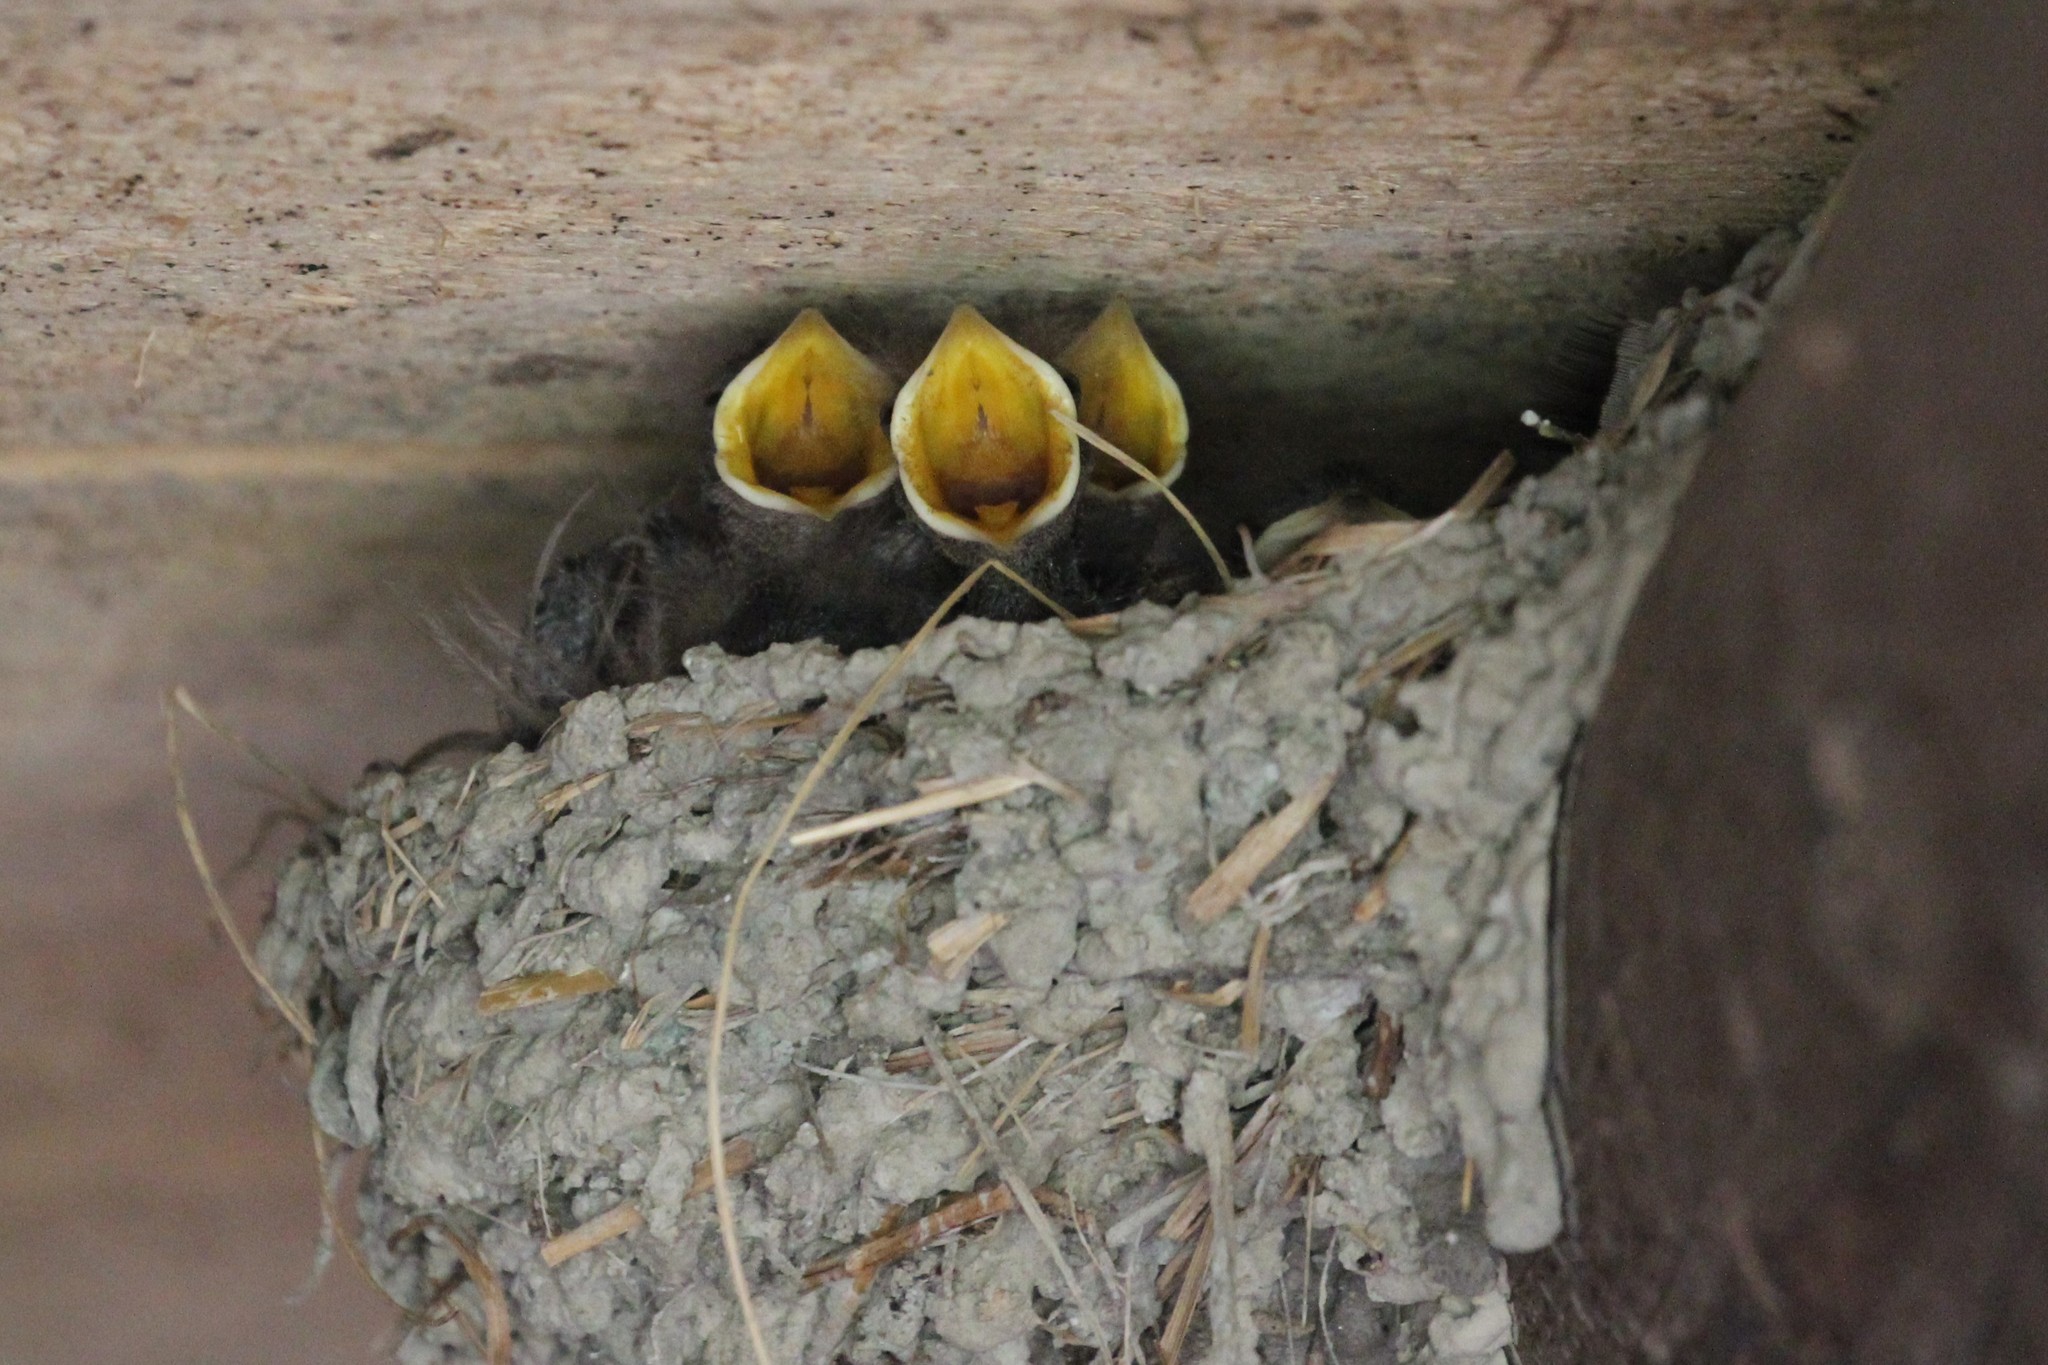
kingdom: Animalia
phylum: Chordata
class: Aves
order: Passeriformes
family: Hirundinidae
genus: Hirundo
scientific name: Hirundo rustica
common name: Barn swallow
